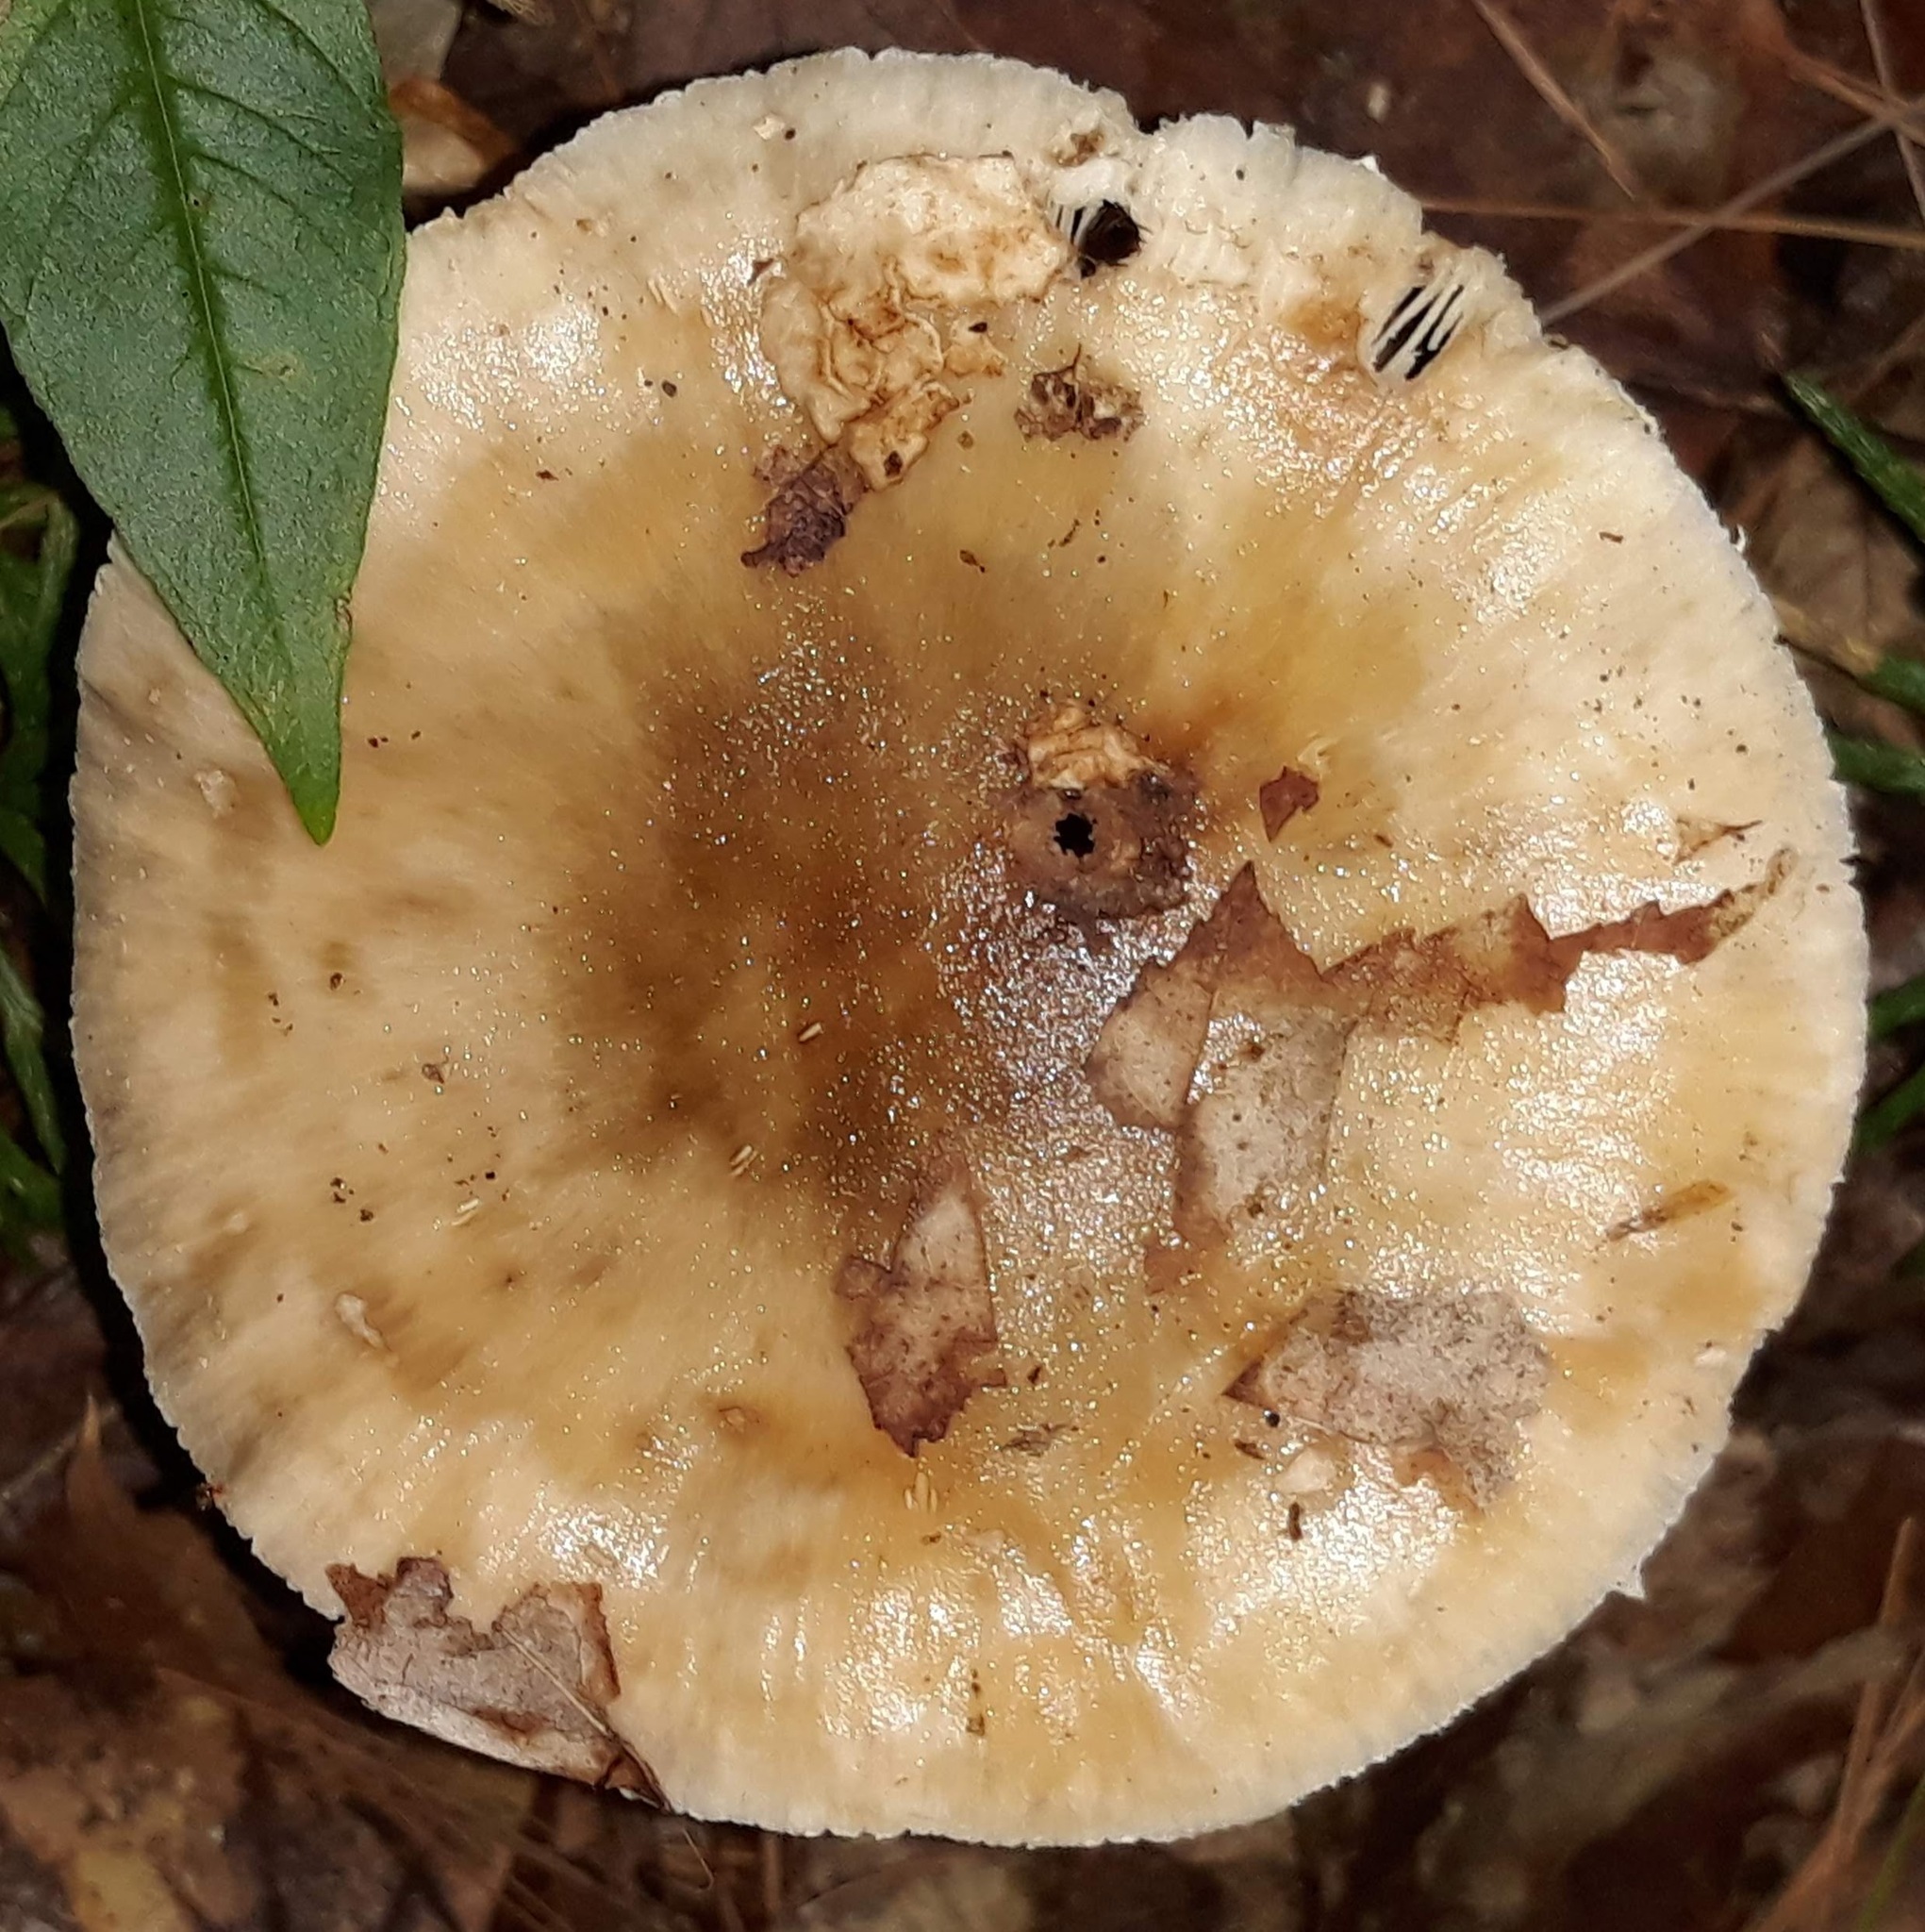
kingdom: Fungi
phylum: Basidiomycota
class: Agaricomycetes
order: Agaricales
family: Amanitaceae
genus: Amanita
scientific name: Amanita
